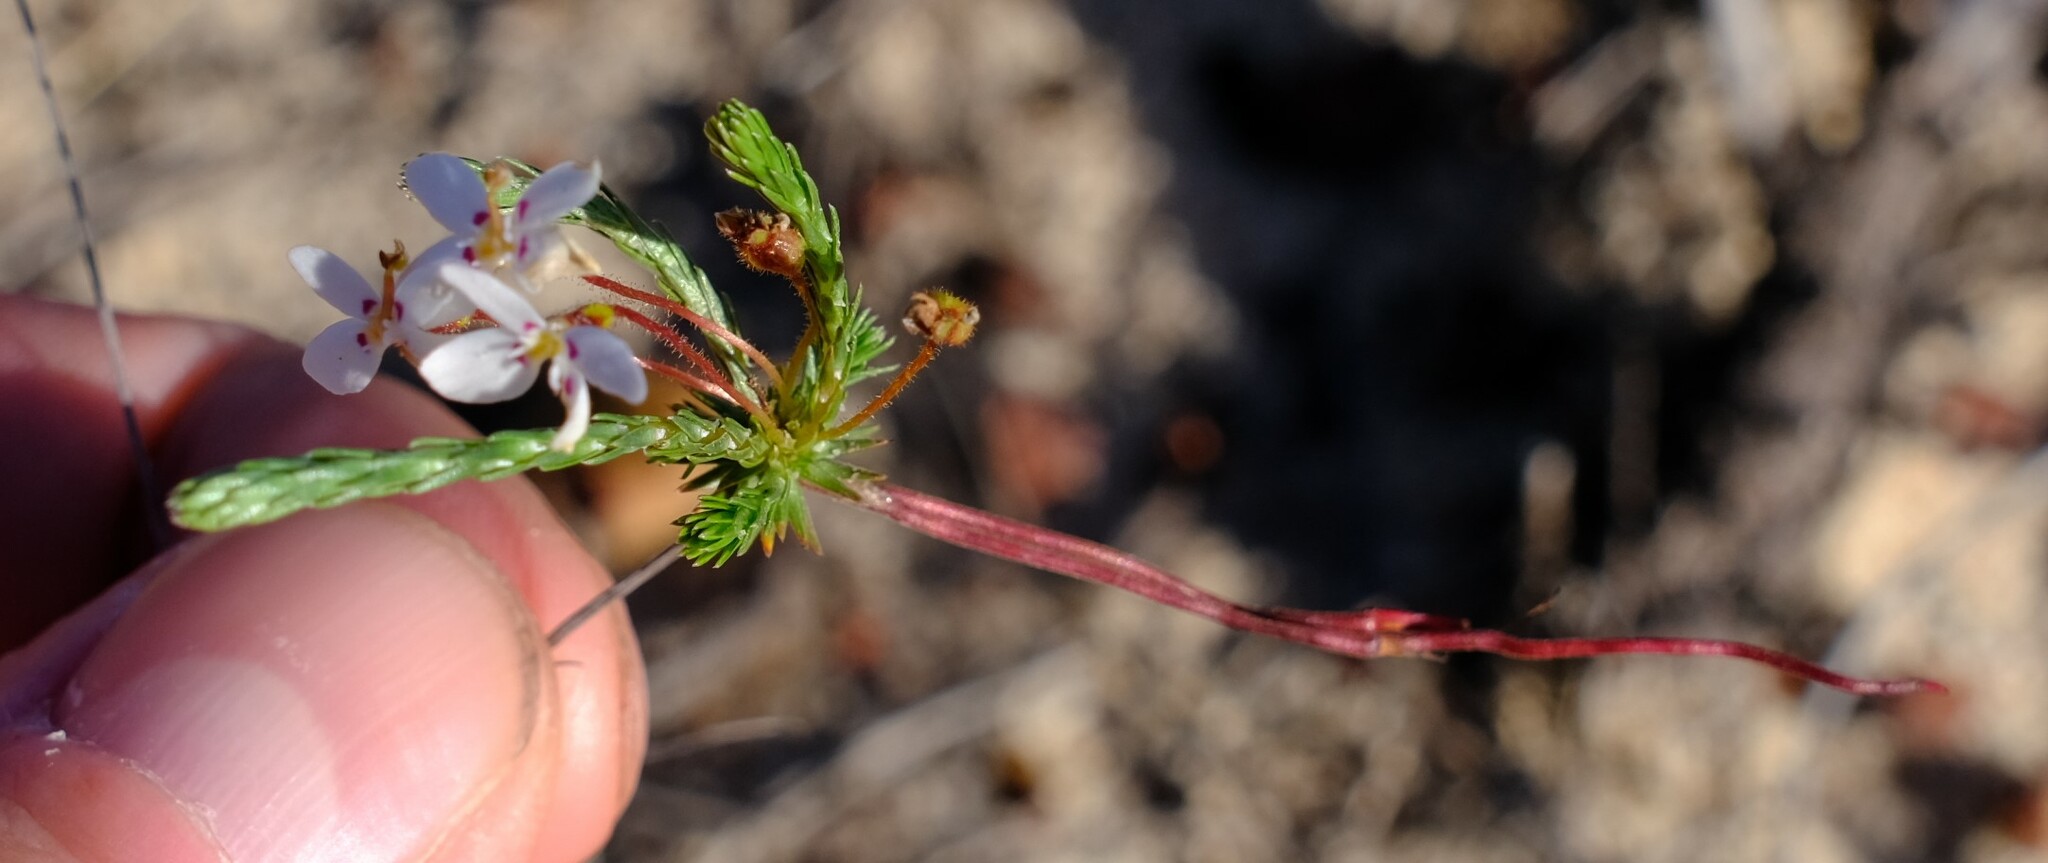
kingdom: Plantae
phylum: Tracheophyta
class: Magnoliopsida
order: Asterales
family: Stylidiaceae
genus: Stylidium
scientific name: Stylidium repens
